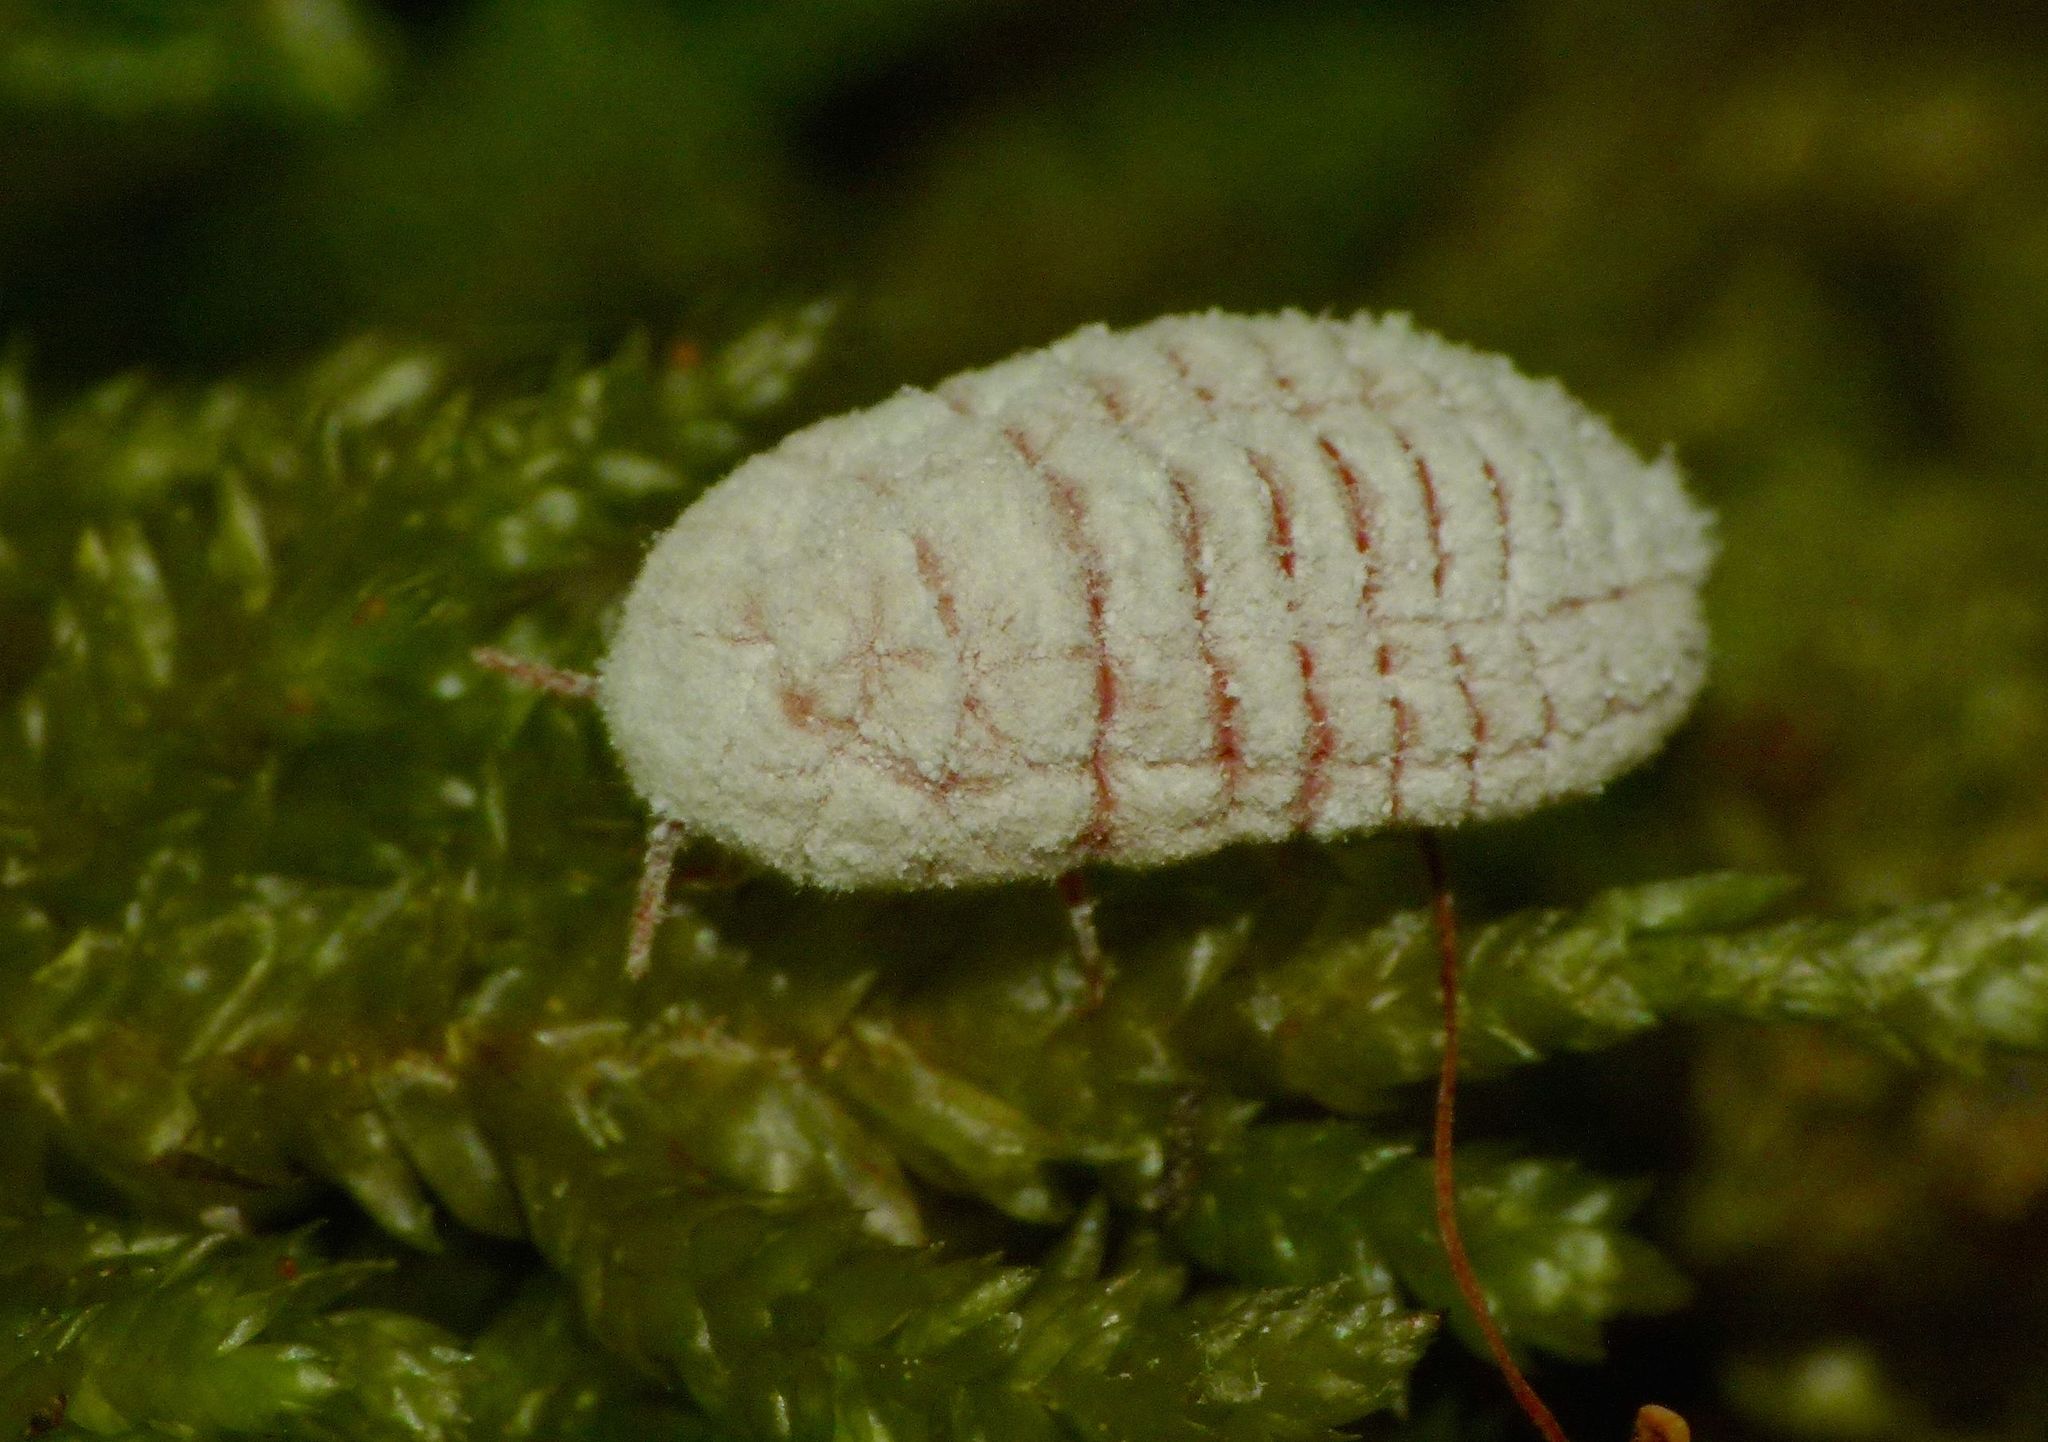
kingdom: Animalia
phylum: Arthropoda
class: Insecta
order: Hemiptera
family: Margarodidae
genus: Coelostomidia
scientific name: Coelostomidia zealandica
